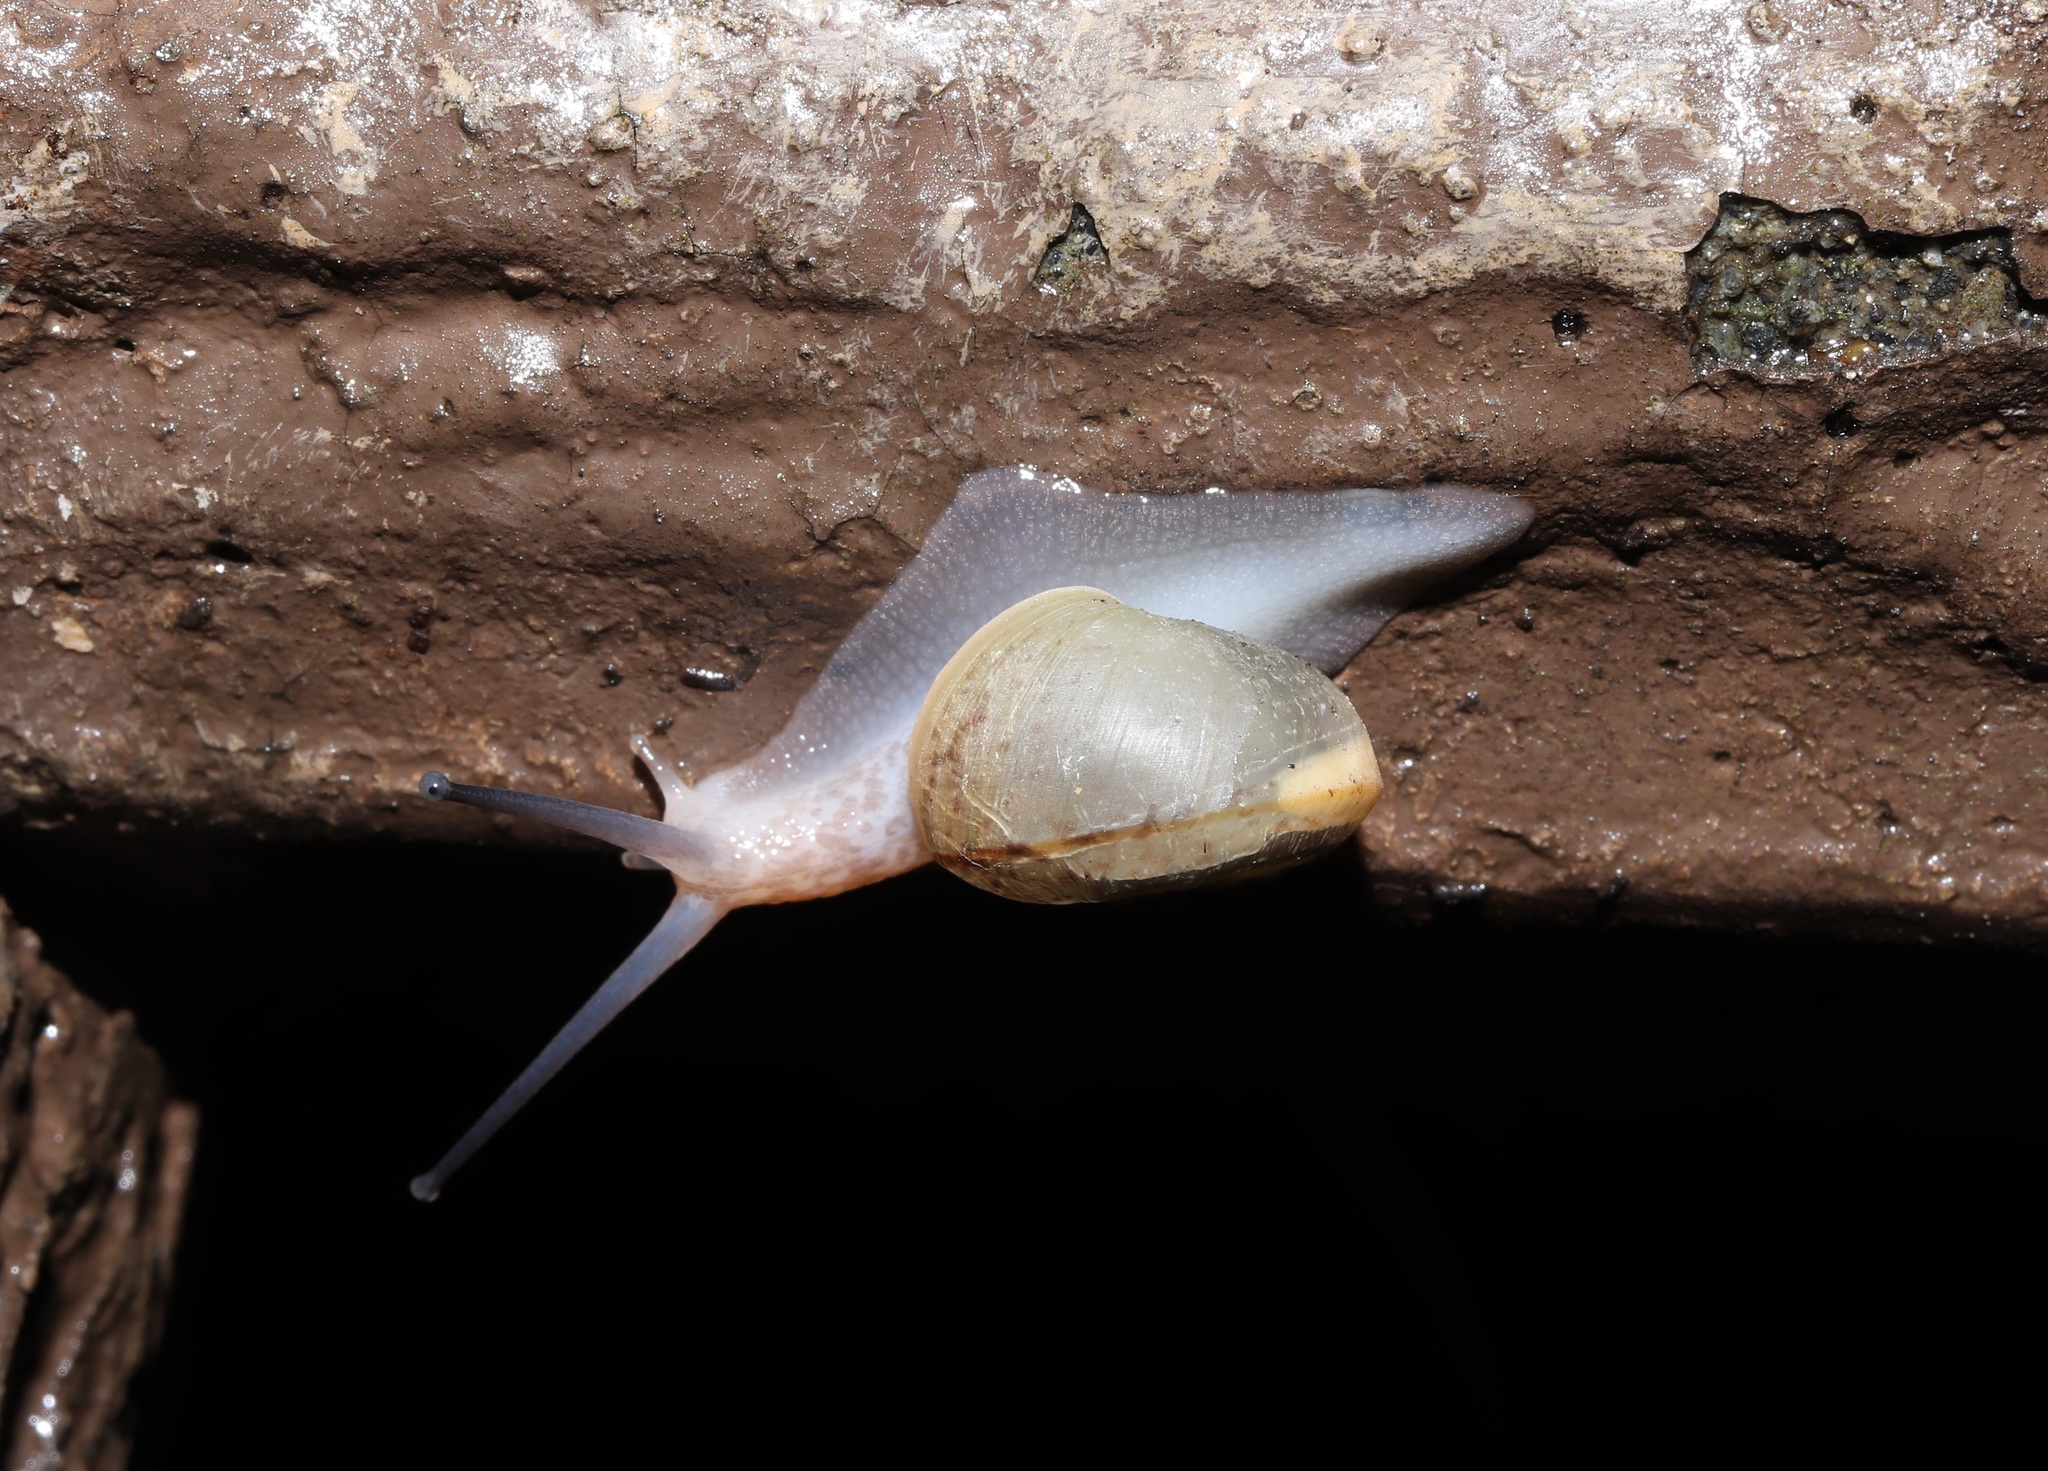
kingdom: Animalia
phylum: Mollusca
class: Gastropoda
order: Stylommatophora
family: Camaenidae
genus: Euhadra
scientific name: Euhadra quaesita
